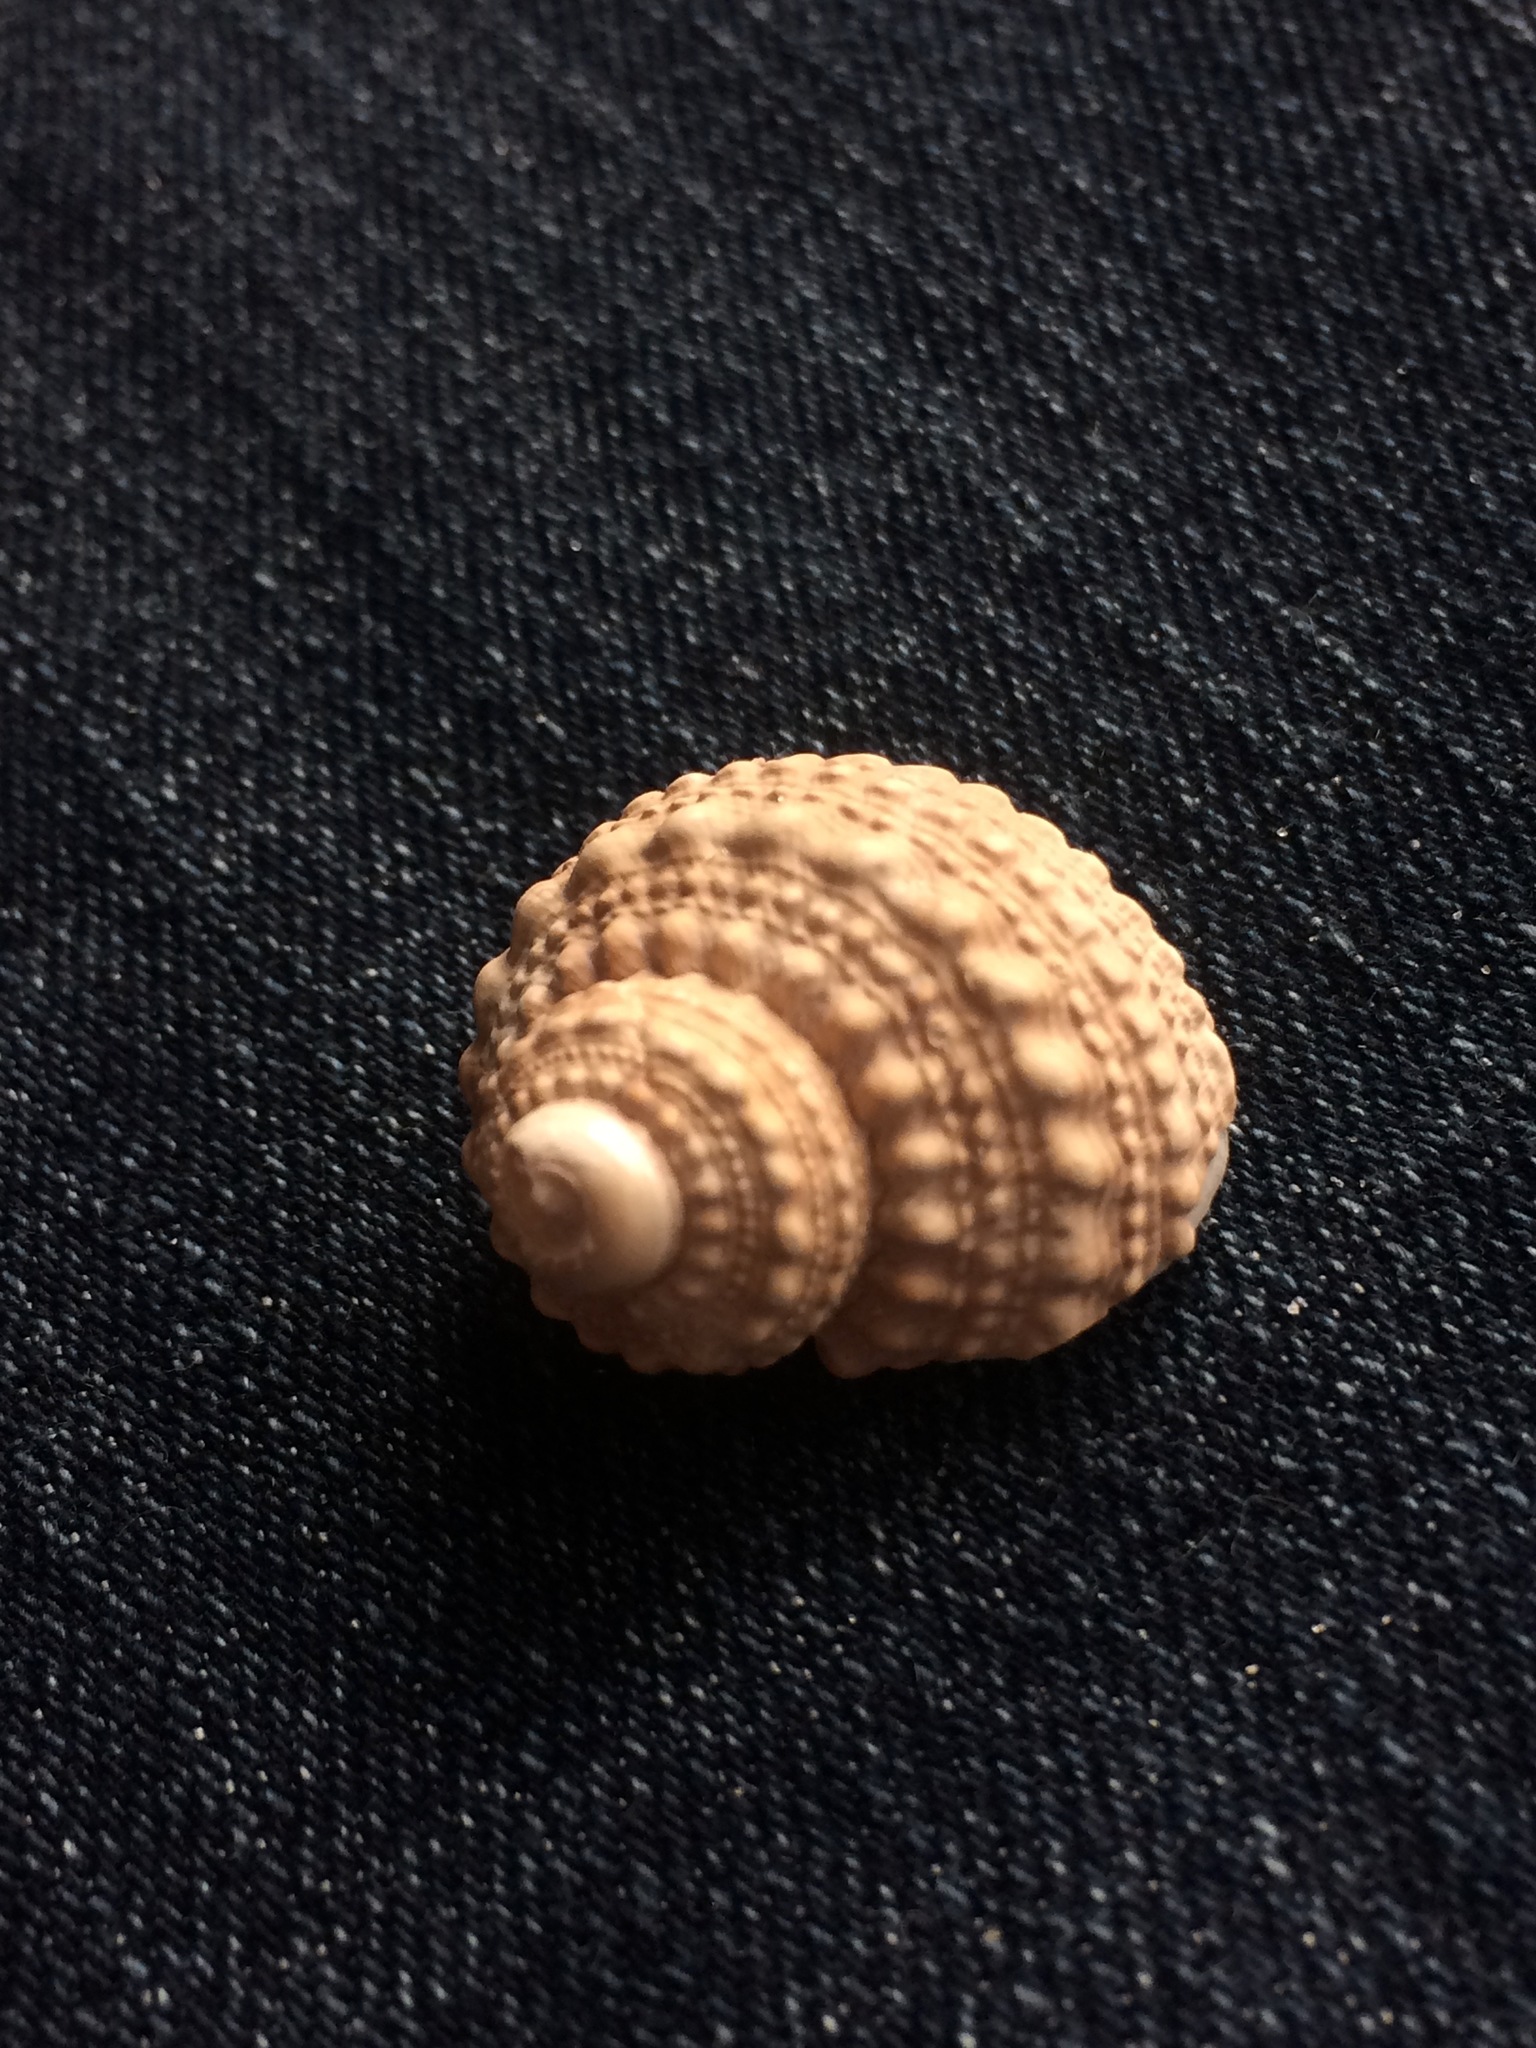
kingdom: Animalia
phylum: Mollusca
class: Gastropoda
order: Trochida
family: Turbinidae
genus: Turbo
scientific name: Turbo castanea
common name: Chestnut turban
